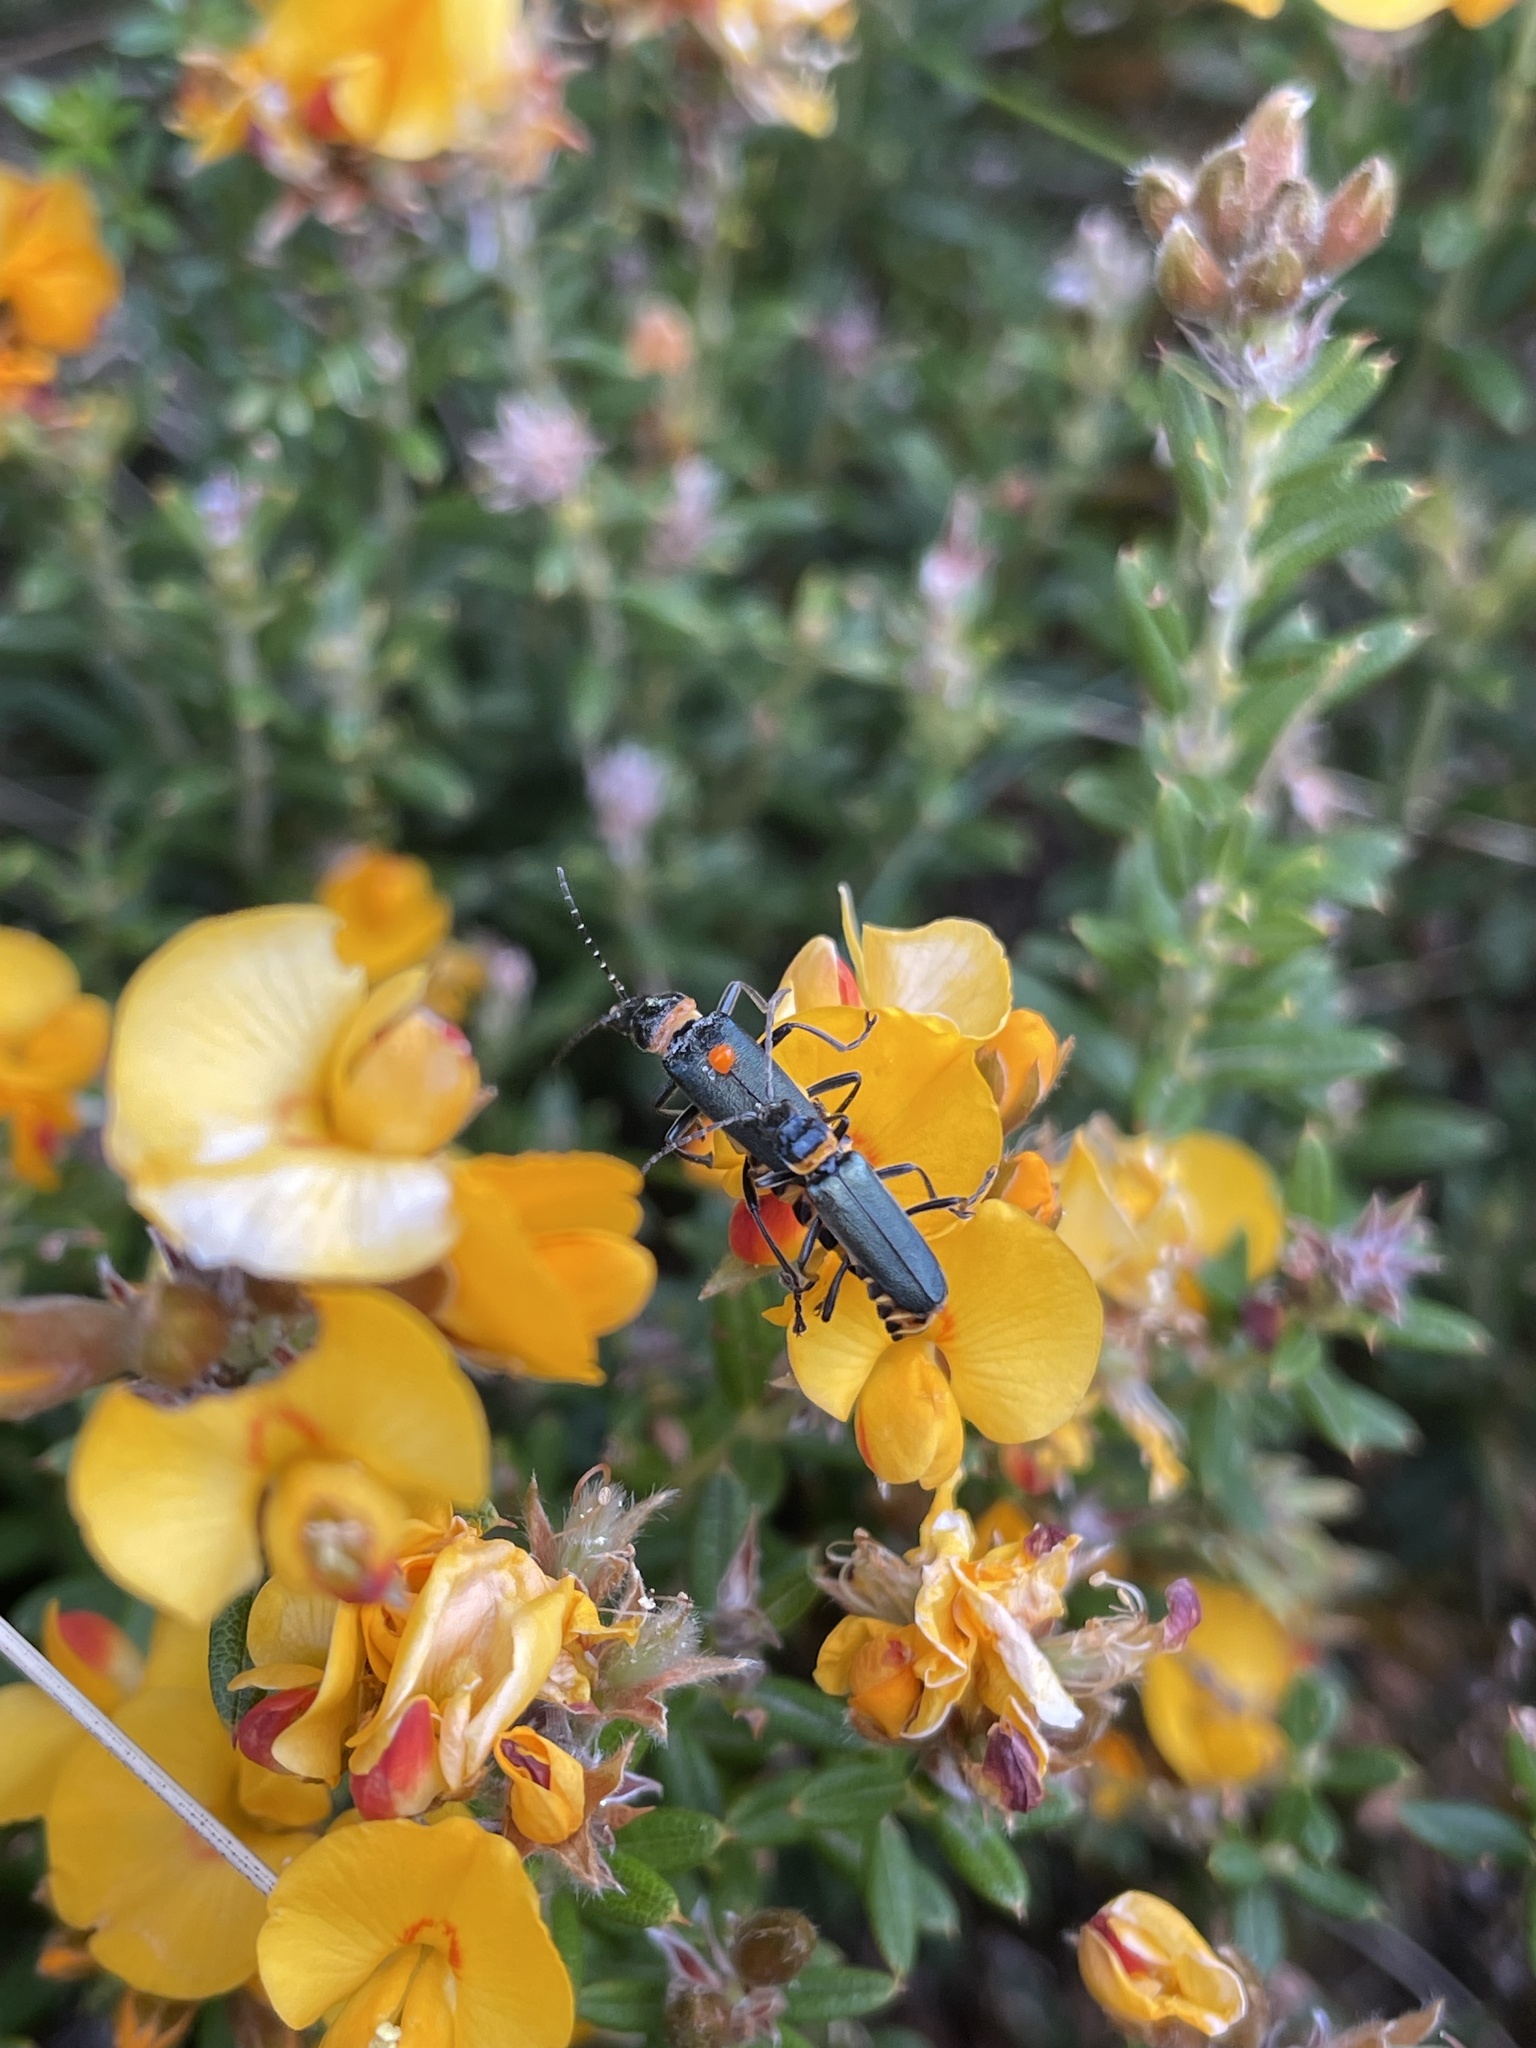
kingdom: Animalia
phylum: Arthropoda
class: Insecta
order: Coleoptera
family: Cantharidae
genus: Chauliognathus
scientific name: Chauliognathus
